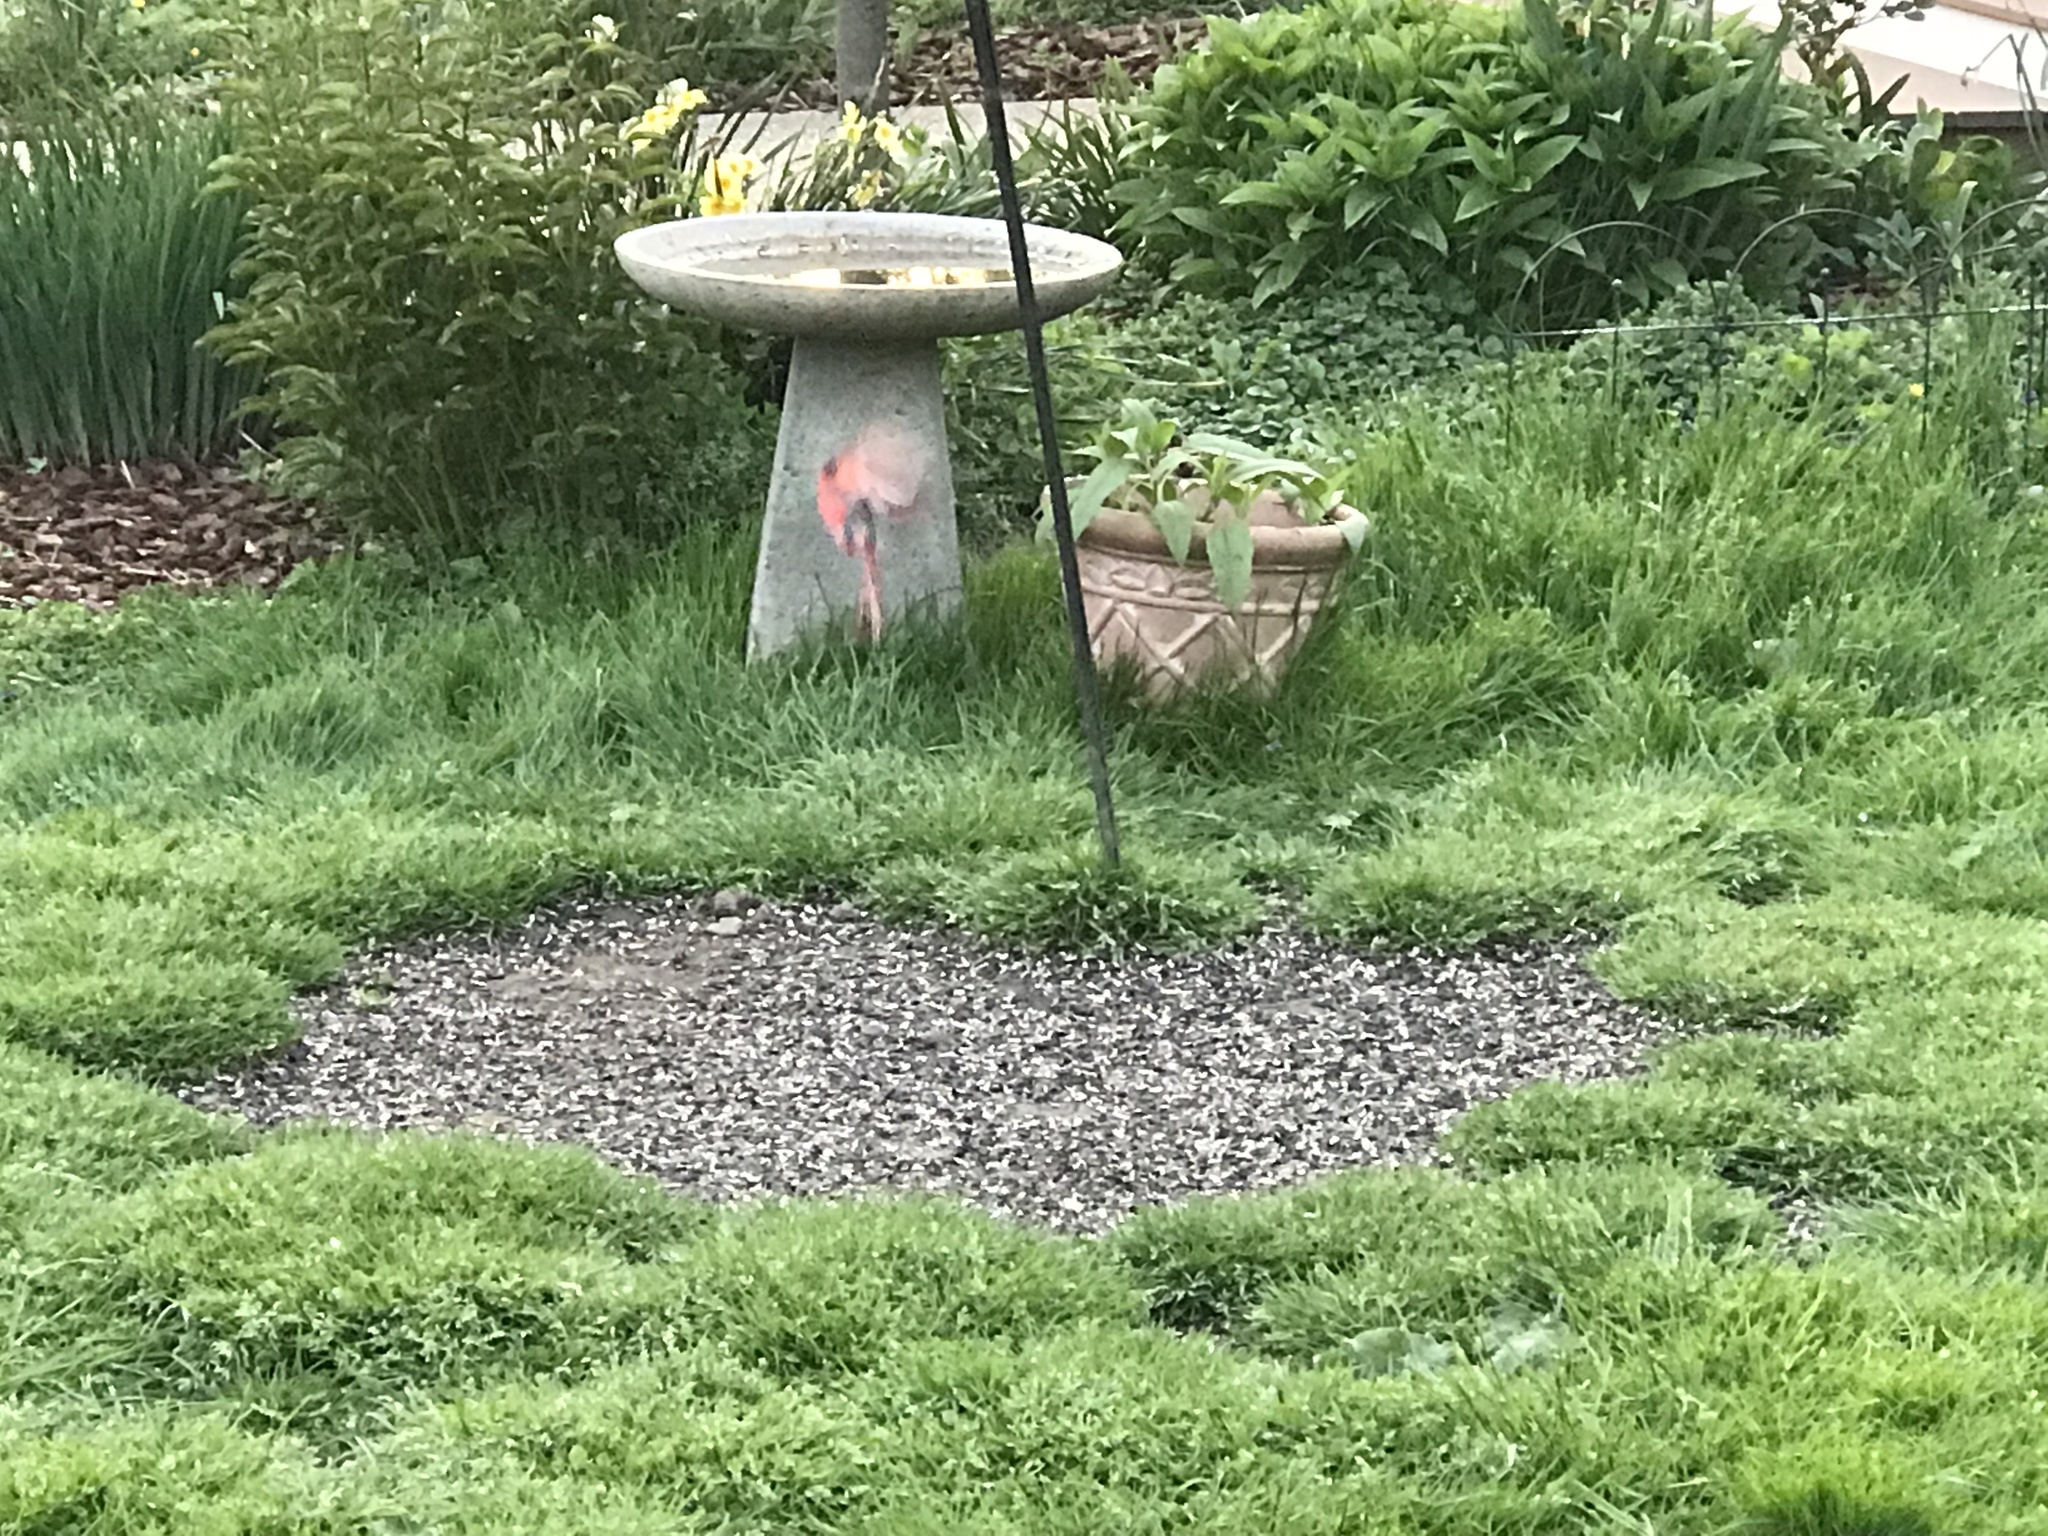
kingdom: Animalia
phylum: Chordata
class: Aves
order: Passeriformes
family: Cardinalidae
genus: Cardinalis
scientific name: Cardinalis cardinalis
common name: Northern cardinal
